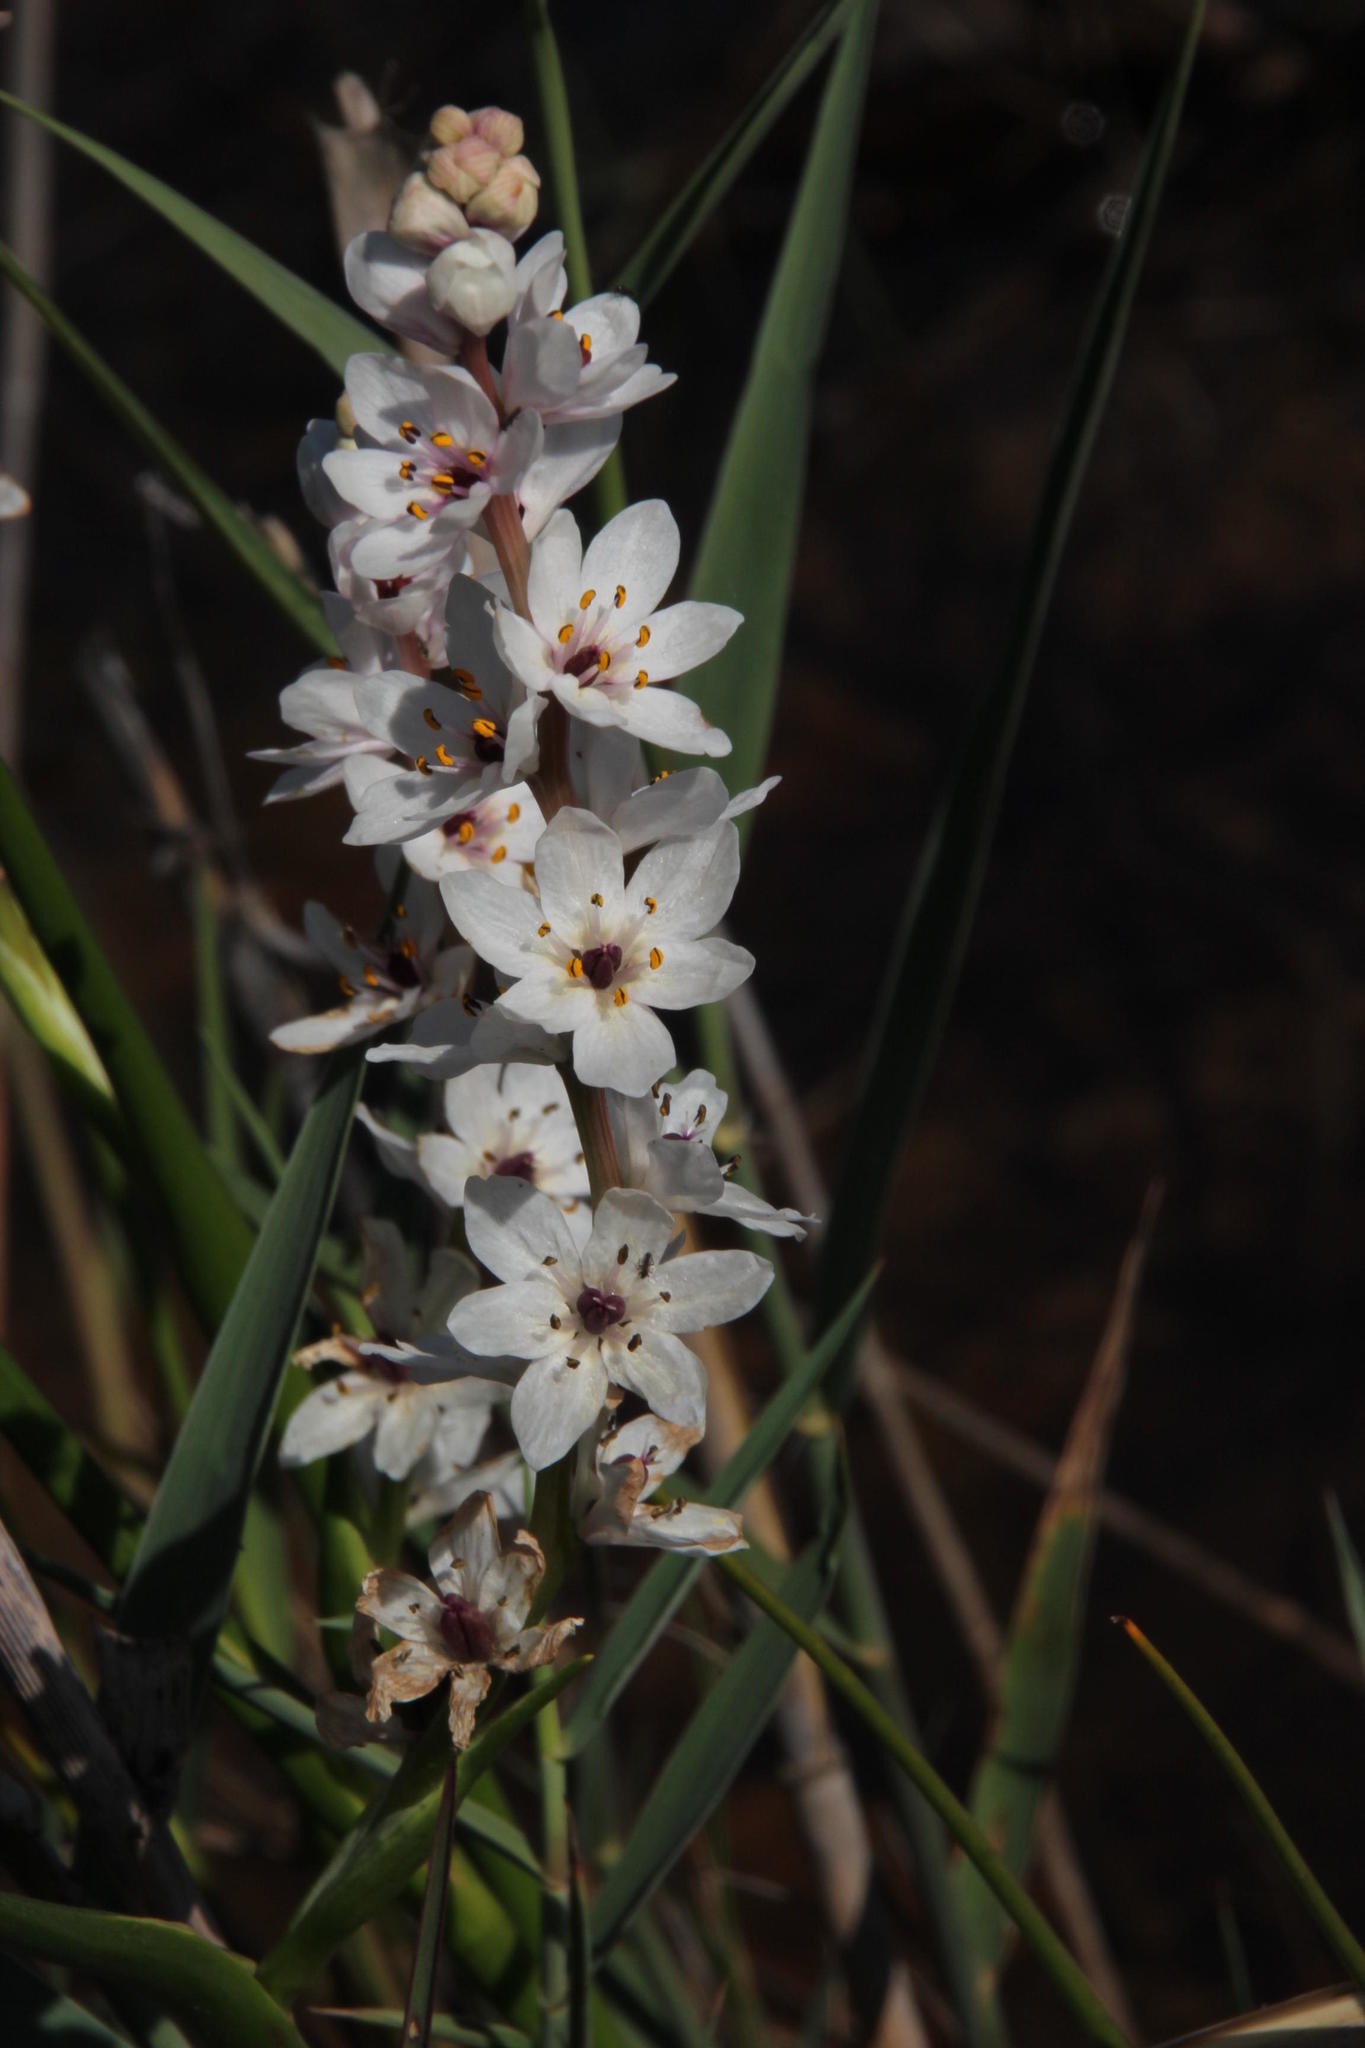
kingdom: Plantae
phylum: Tracheophyta
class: Liliopsida
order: Liliales
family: Colchicaceae
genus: Wurmbea
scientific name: Wurmbea stricta
